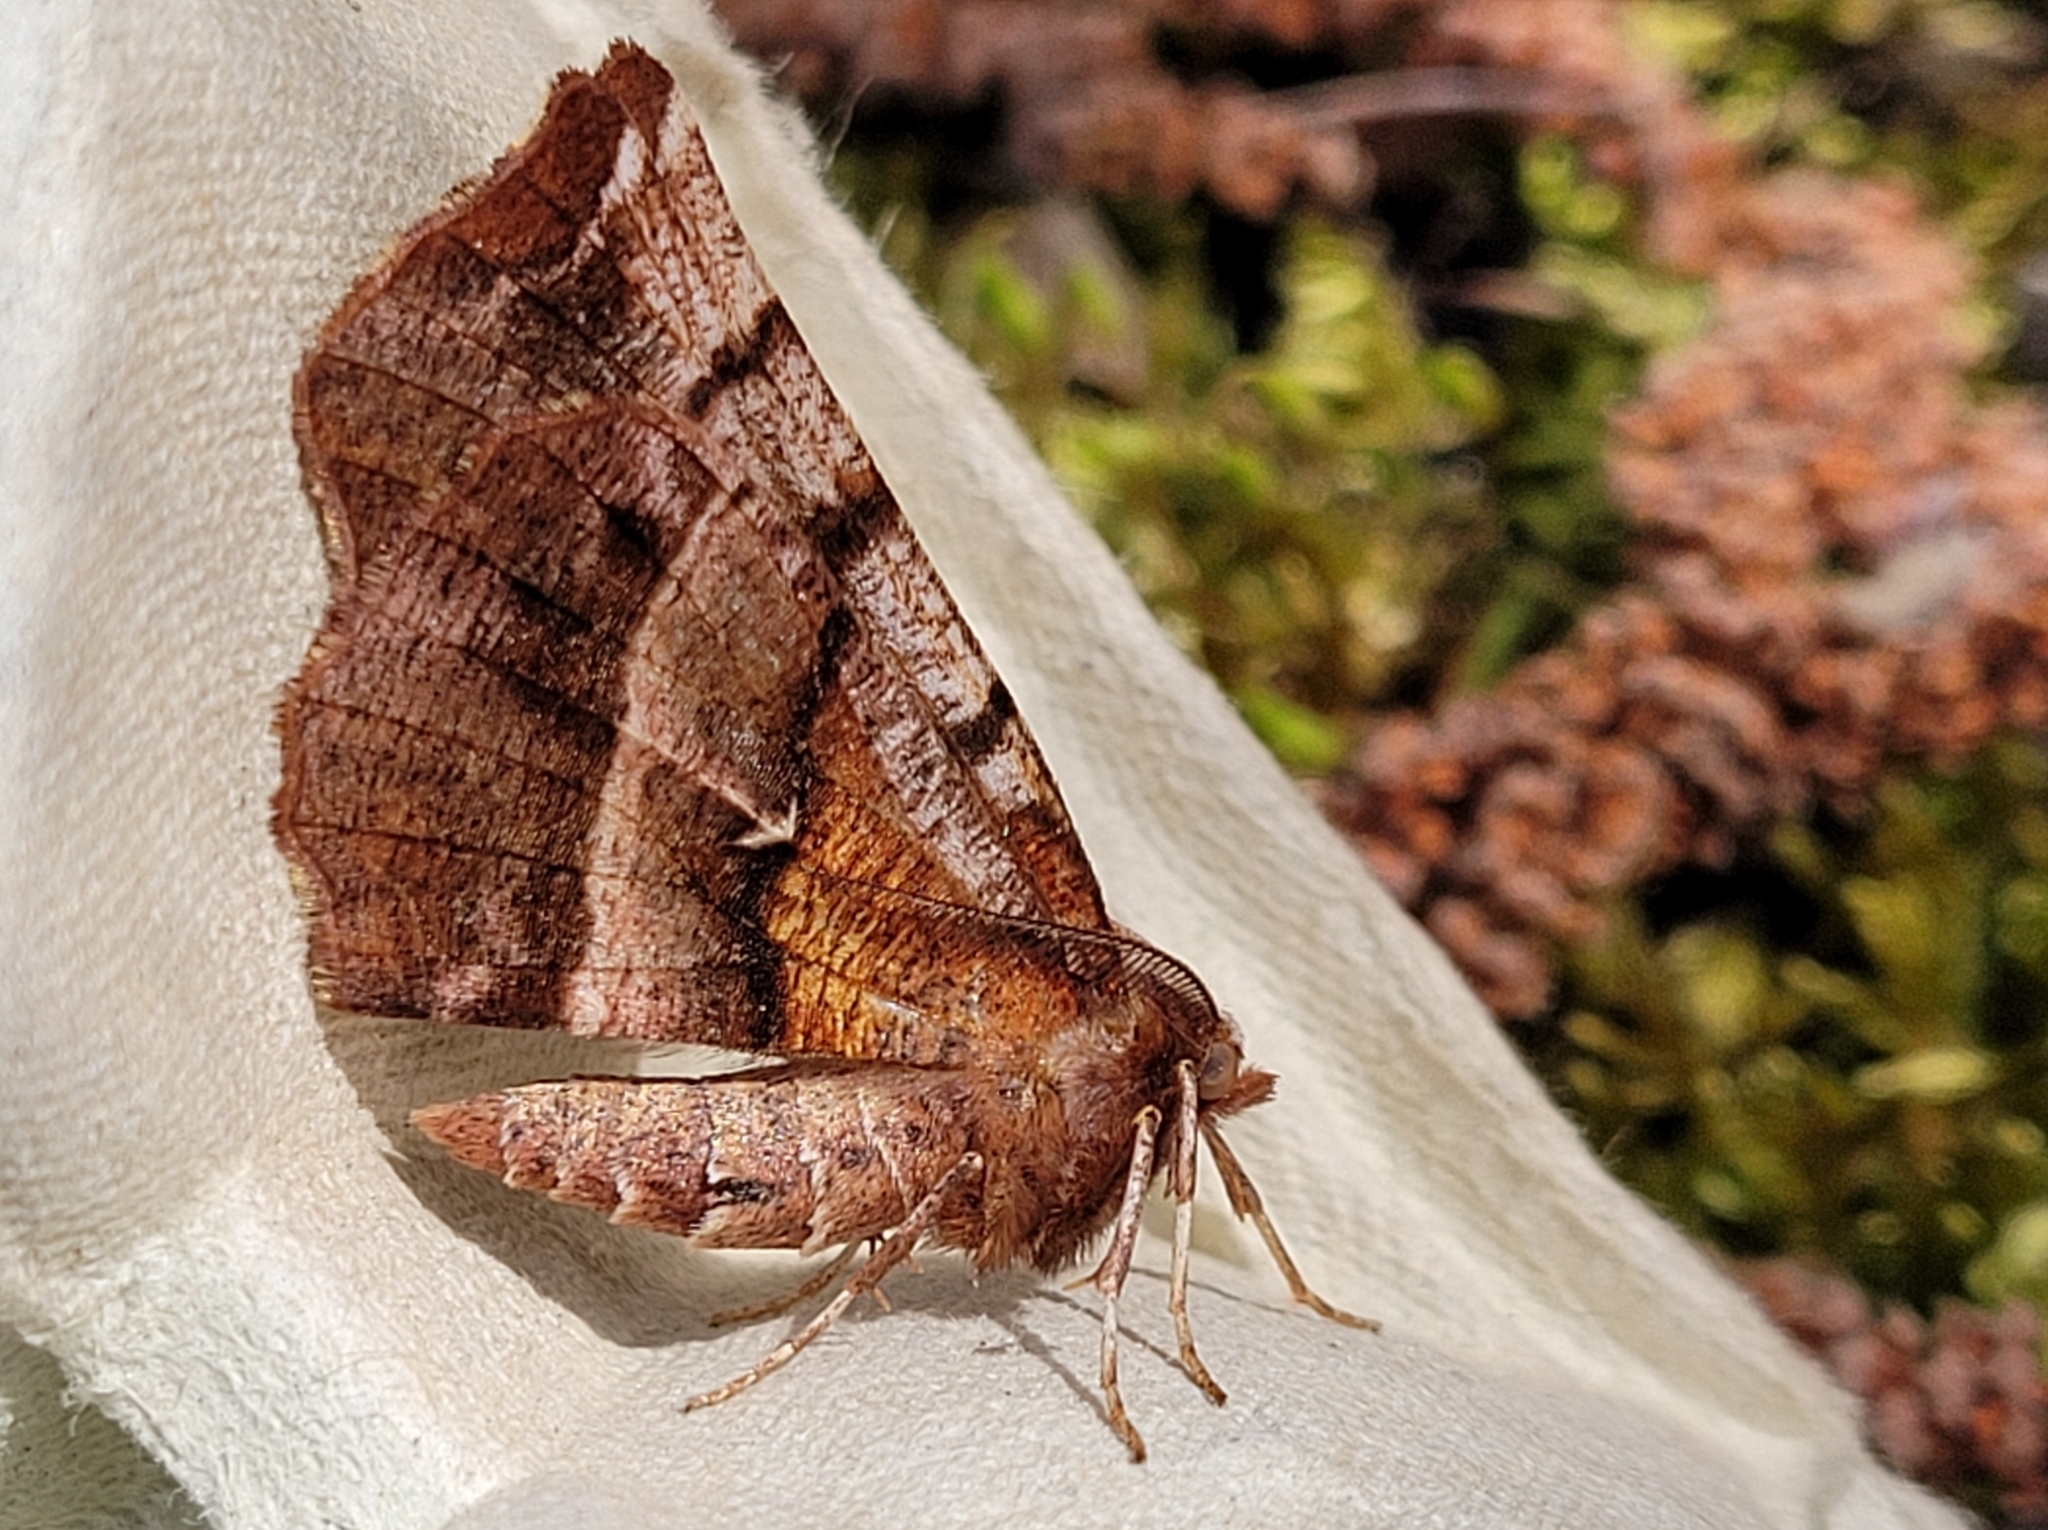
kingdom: Animalia
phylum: Arthropoda
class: Insecta
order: Lepidoptera
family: Geometridae
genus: Selenia
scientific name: Selenia dentaria
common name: Early thorn
